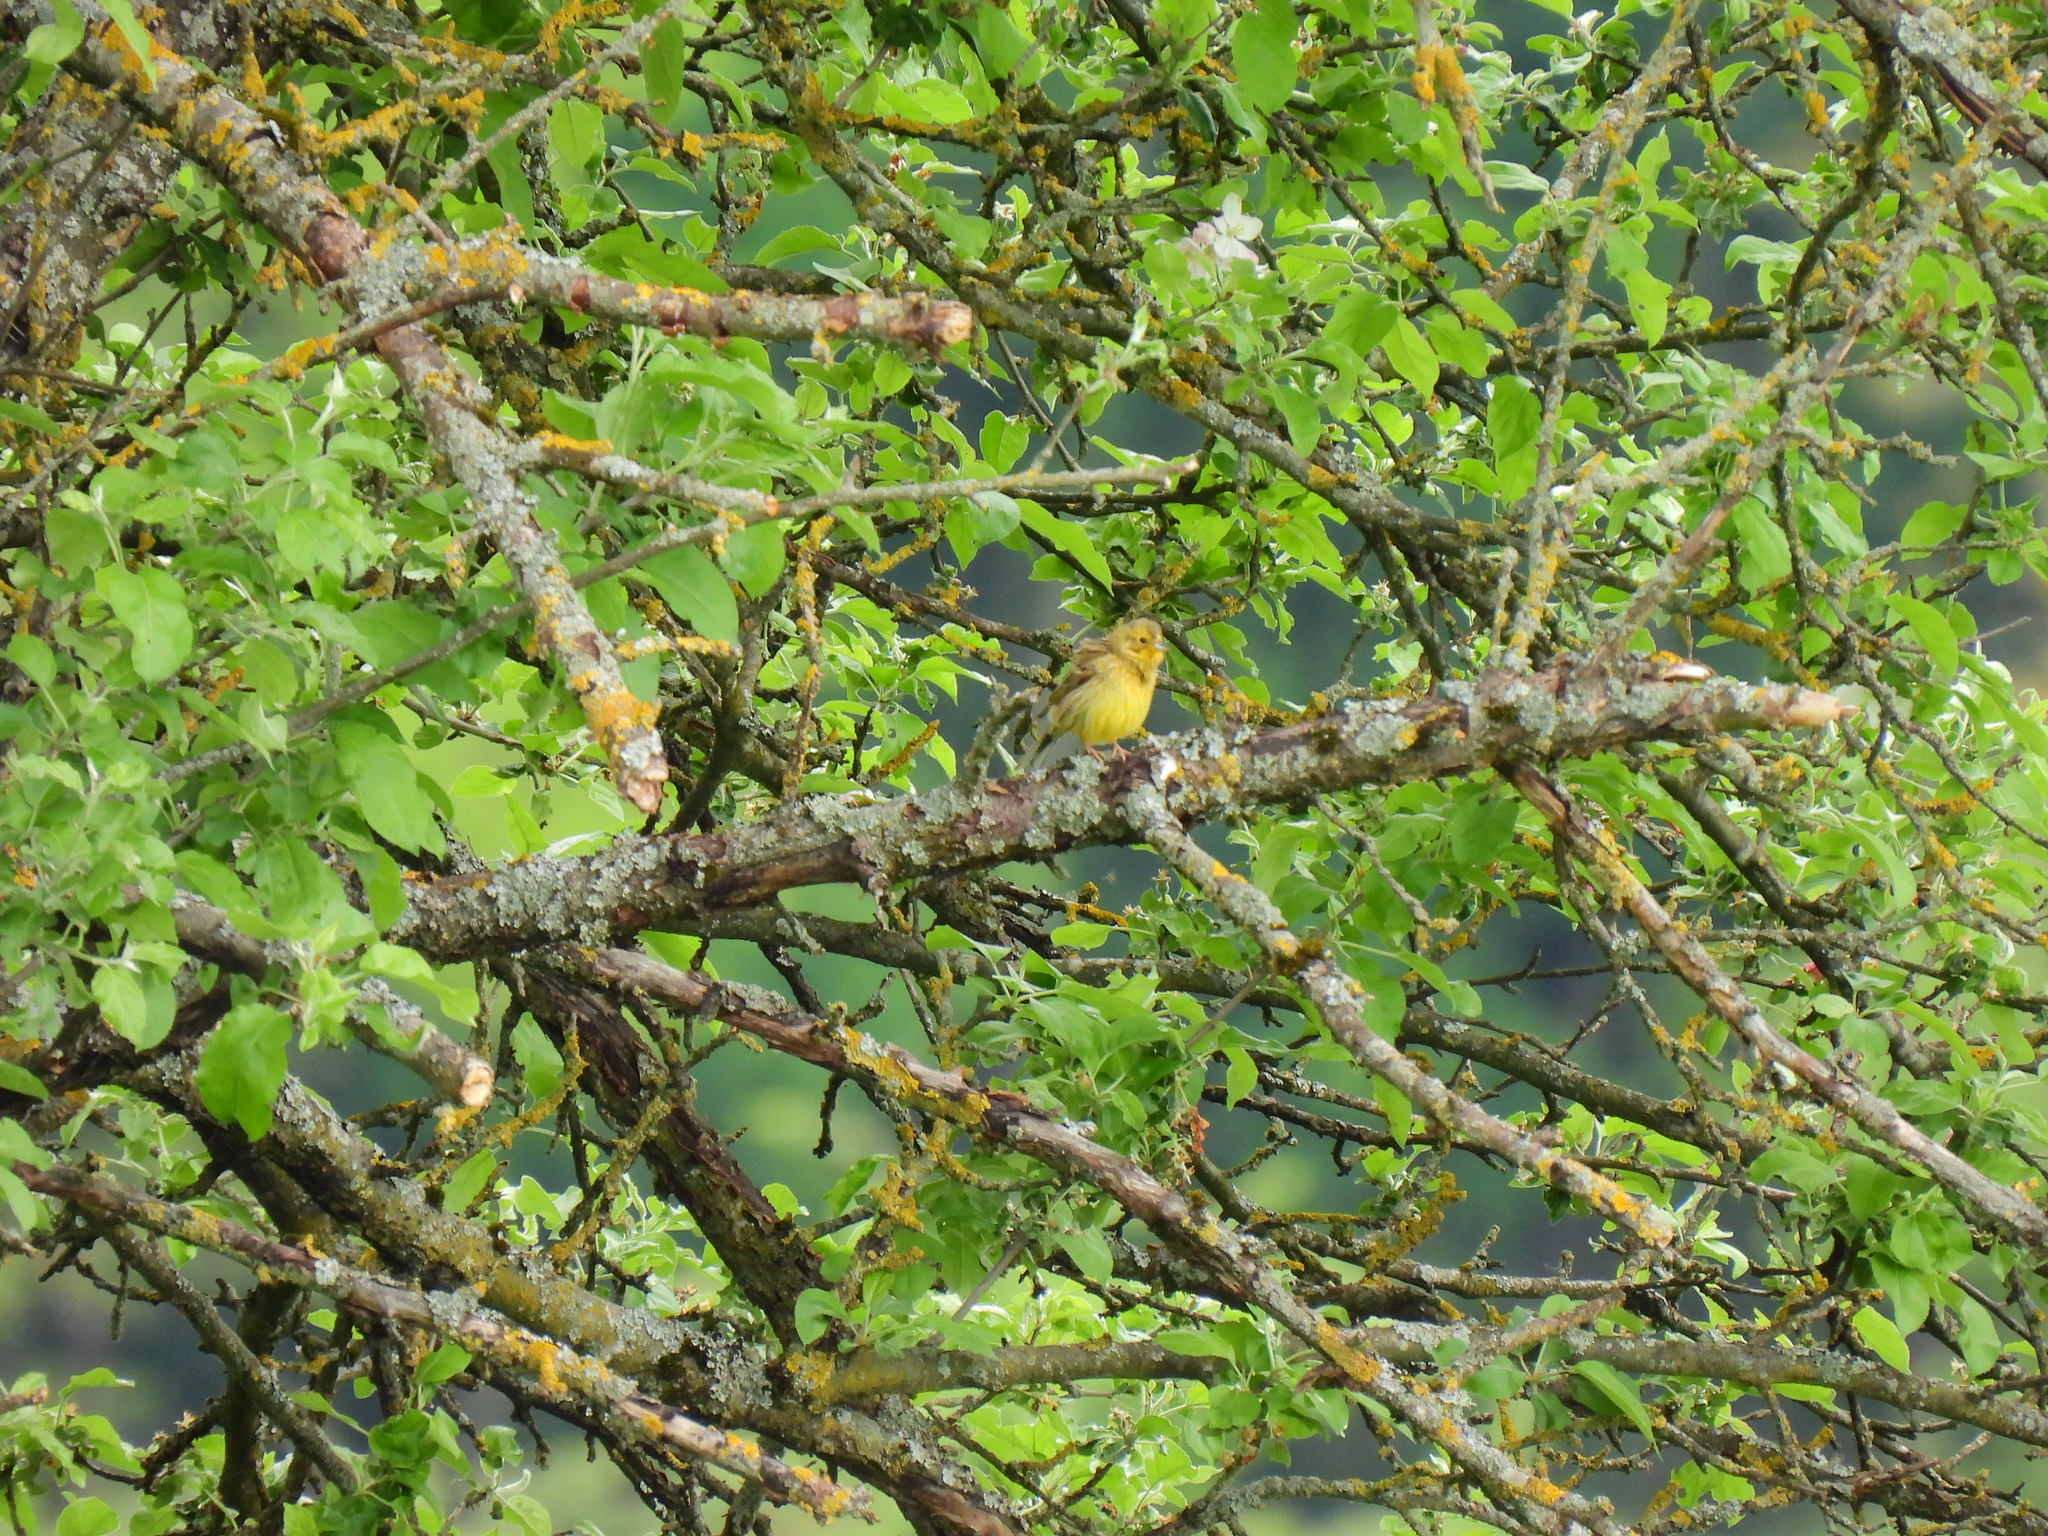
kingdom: Animalia
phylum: Chordata
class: Aves
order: Passeriformes
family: Emberizidae
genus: Emberiza
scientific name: Emberiza citrinella
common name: Yellowhammer
